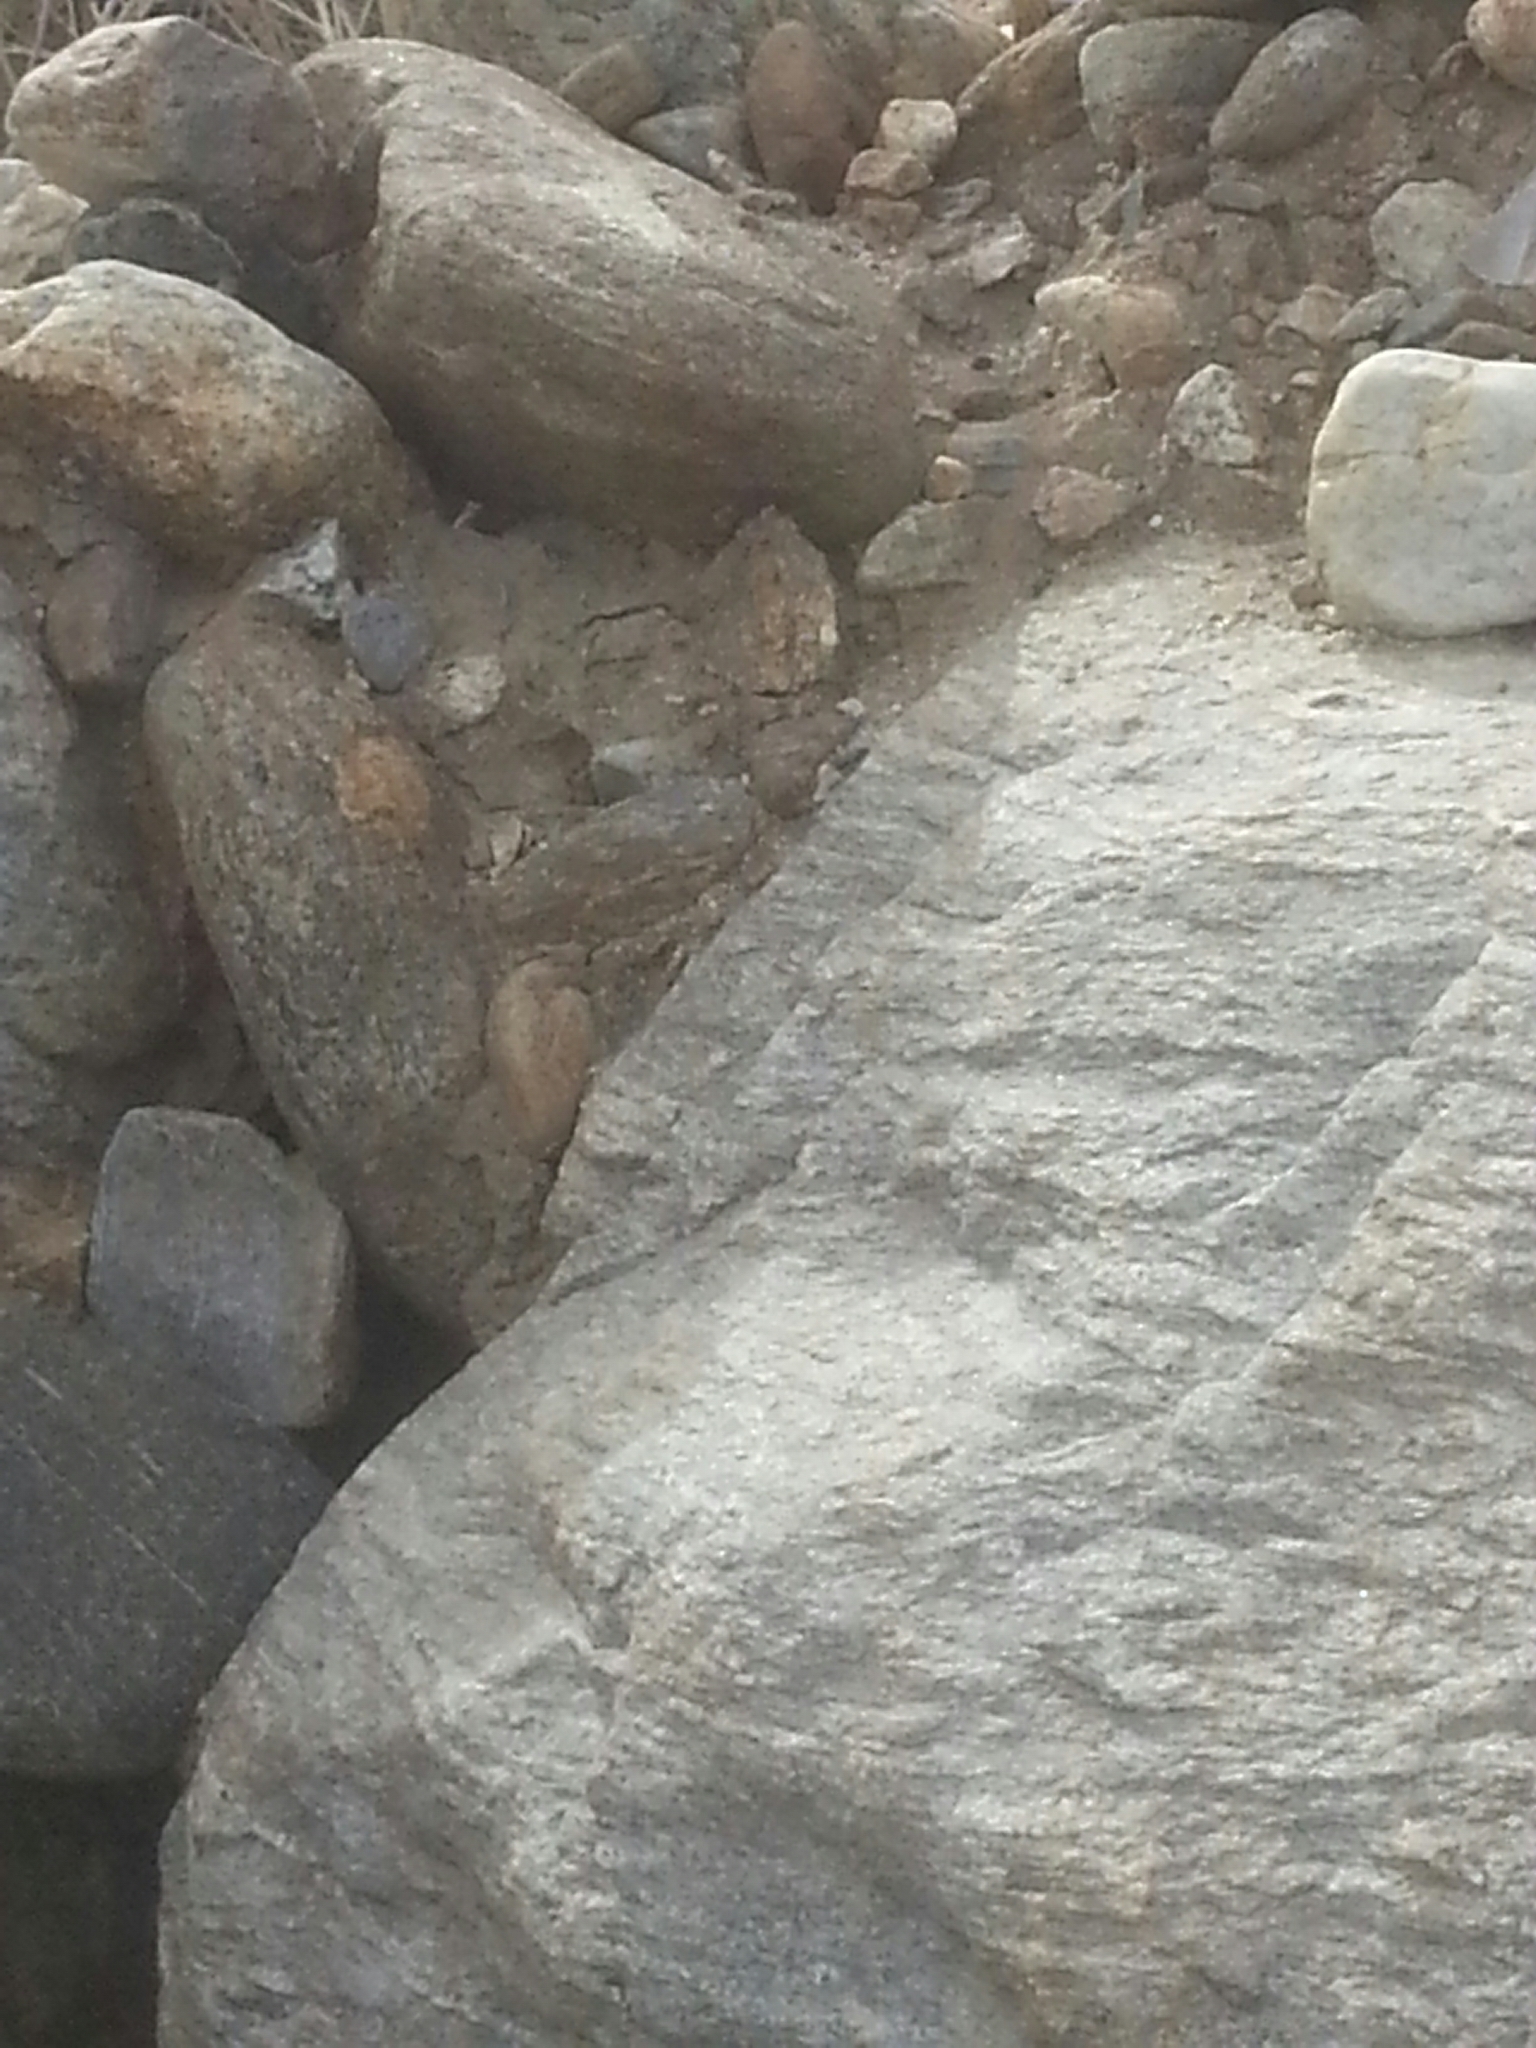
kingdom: Animalia
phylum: Chordata
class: Squamata
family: Phrynosomatidae
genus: Uta
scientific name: Uta stansburiana
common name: Side-blotched lizard
